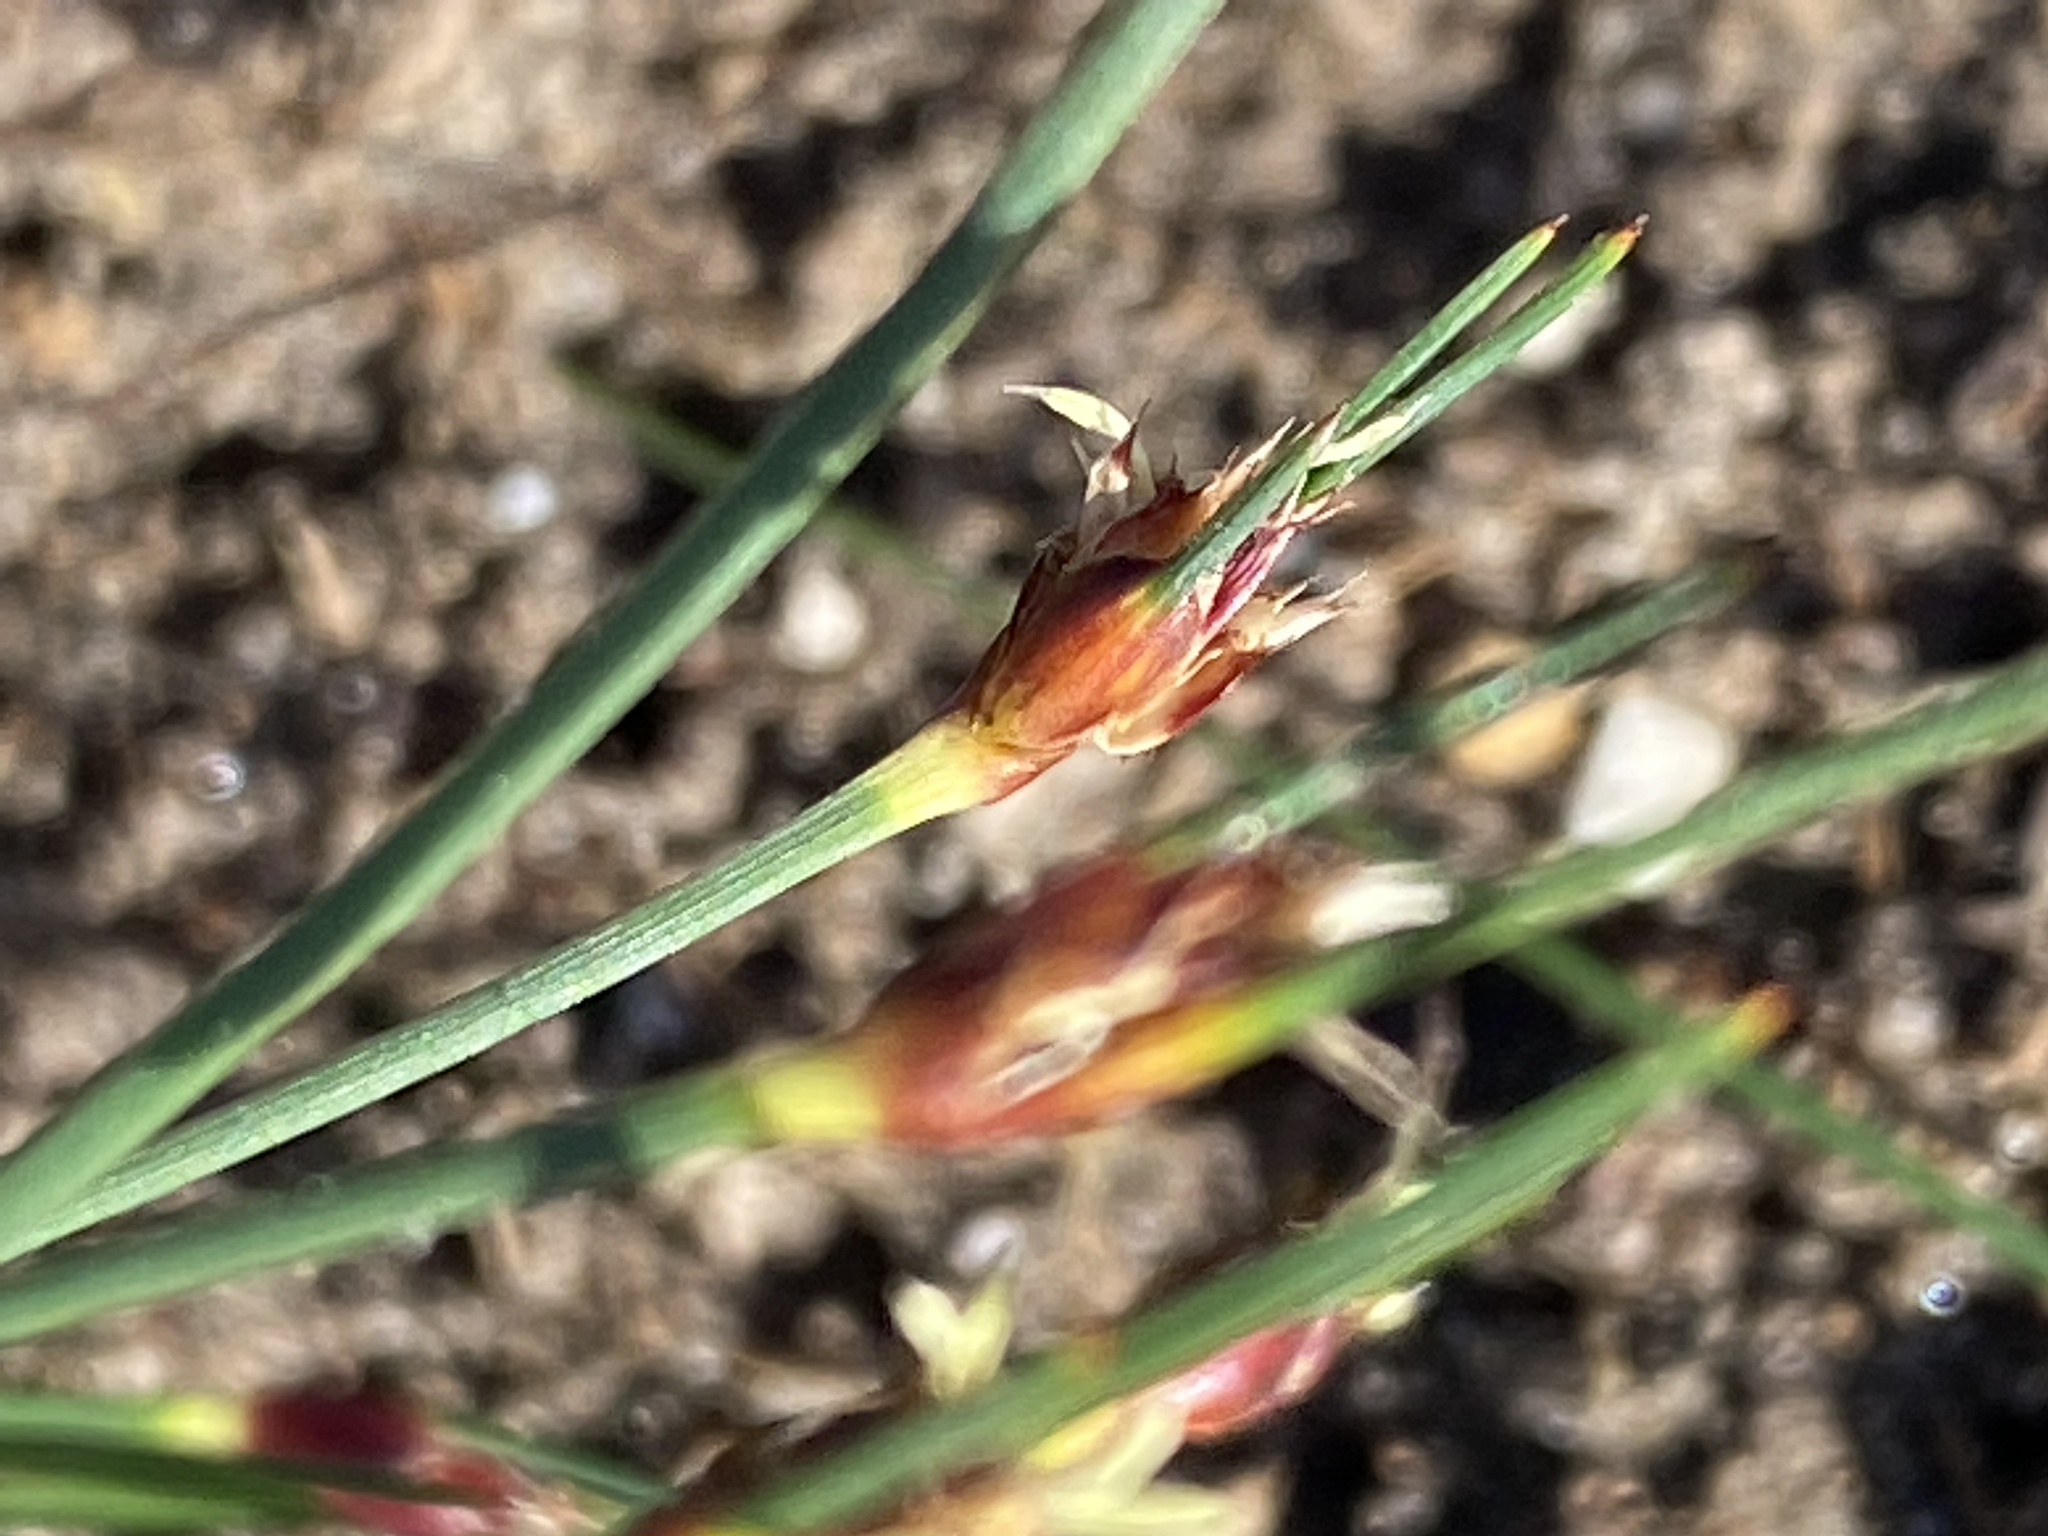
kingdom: Plantae
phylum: Tracheophyta
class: Liliopsida
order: Poales
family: Cyperaceae
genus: Ficinia
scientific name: Ficinia dunensis
